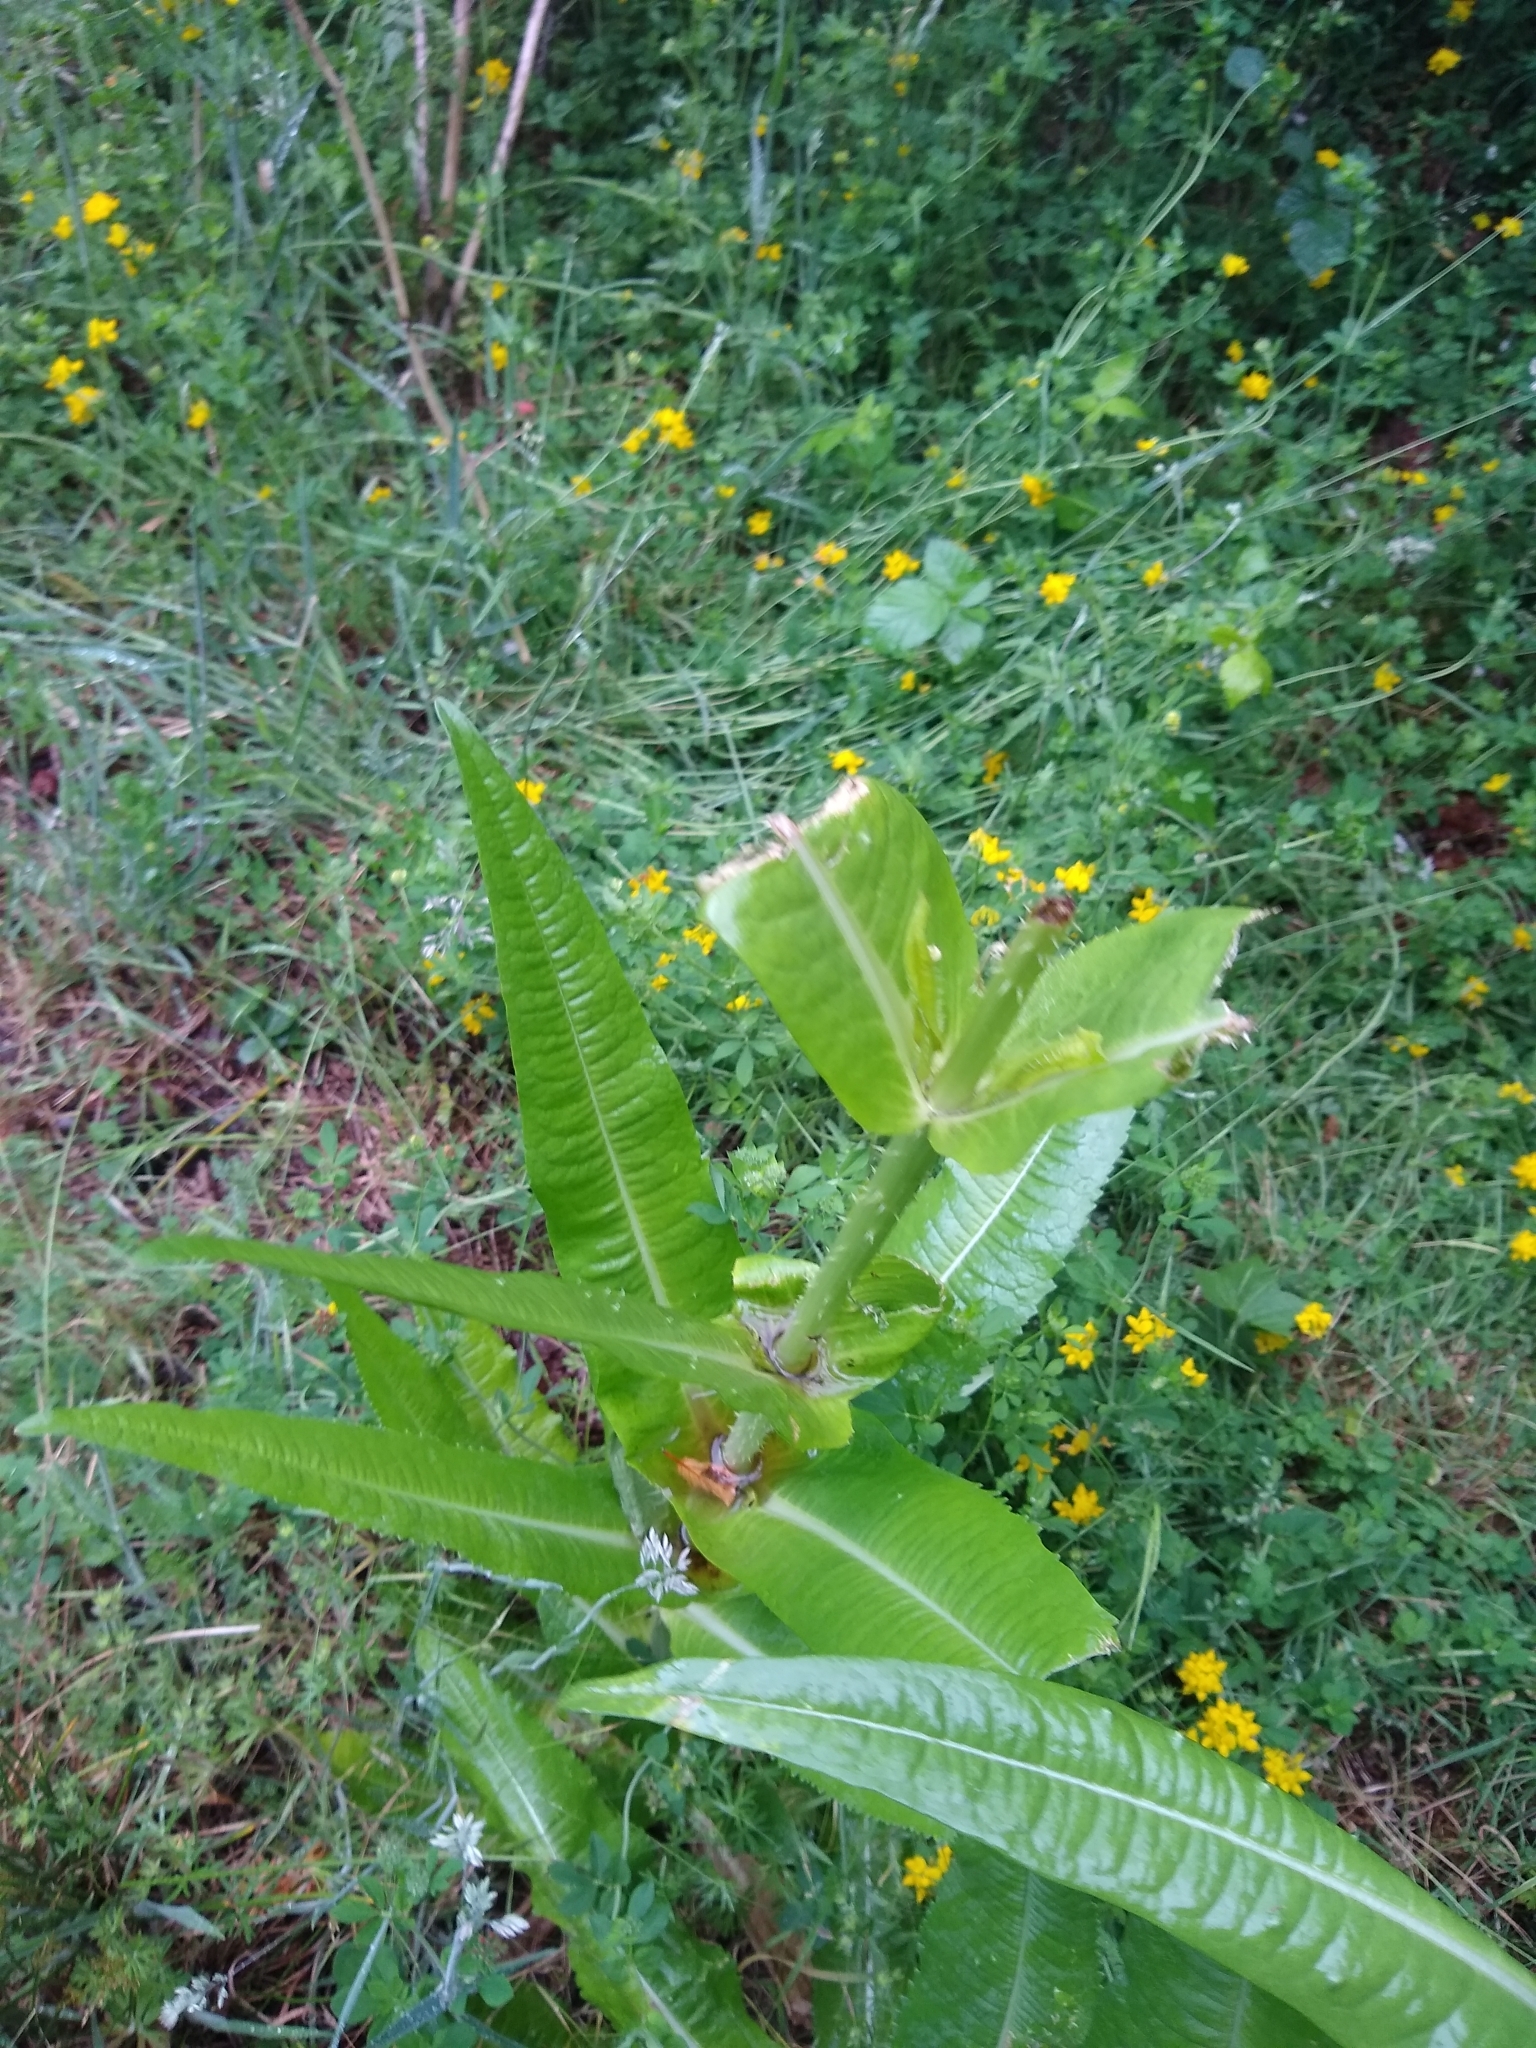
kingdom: Plantae
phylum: Tracheophyta
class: Magnoliopsida
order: Dipsacales
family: Caprifoliaceae
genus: Dipsacus
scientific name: Dipsacus fullonum
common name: Teasel
